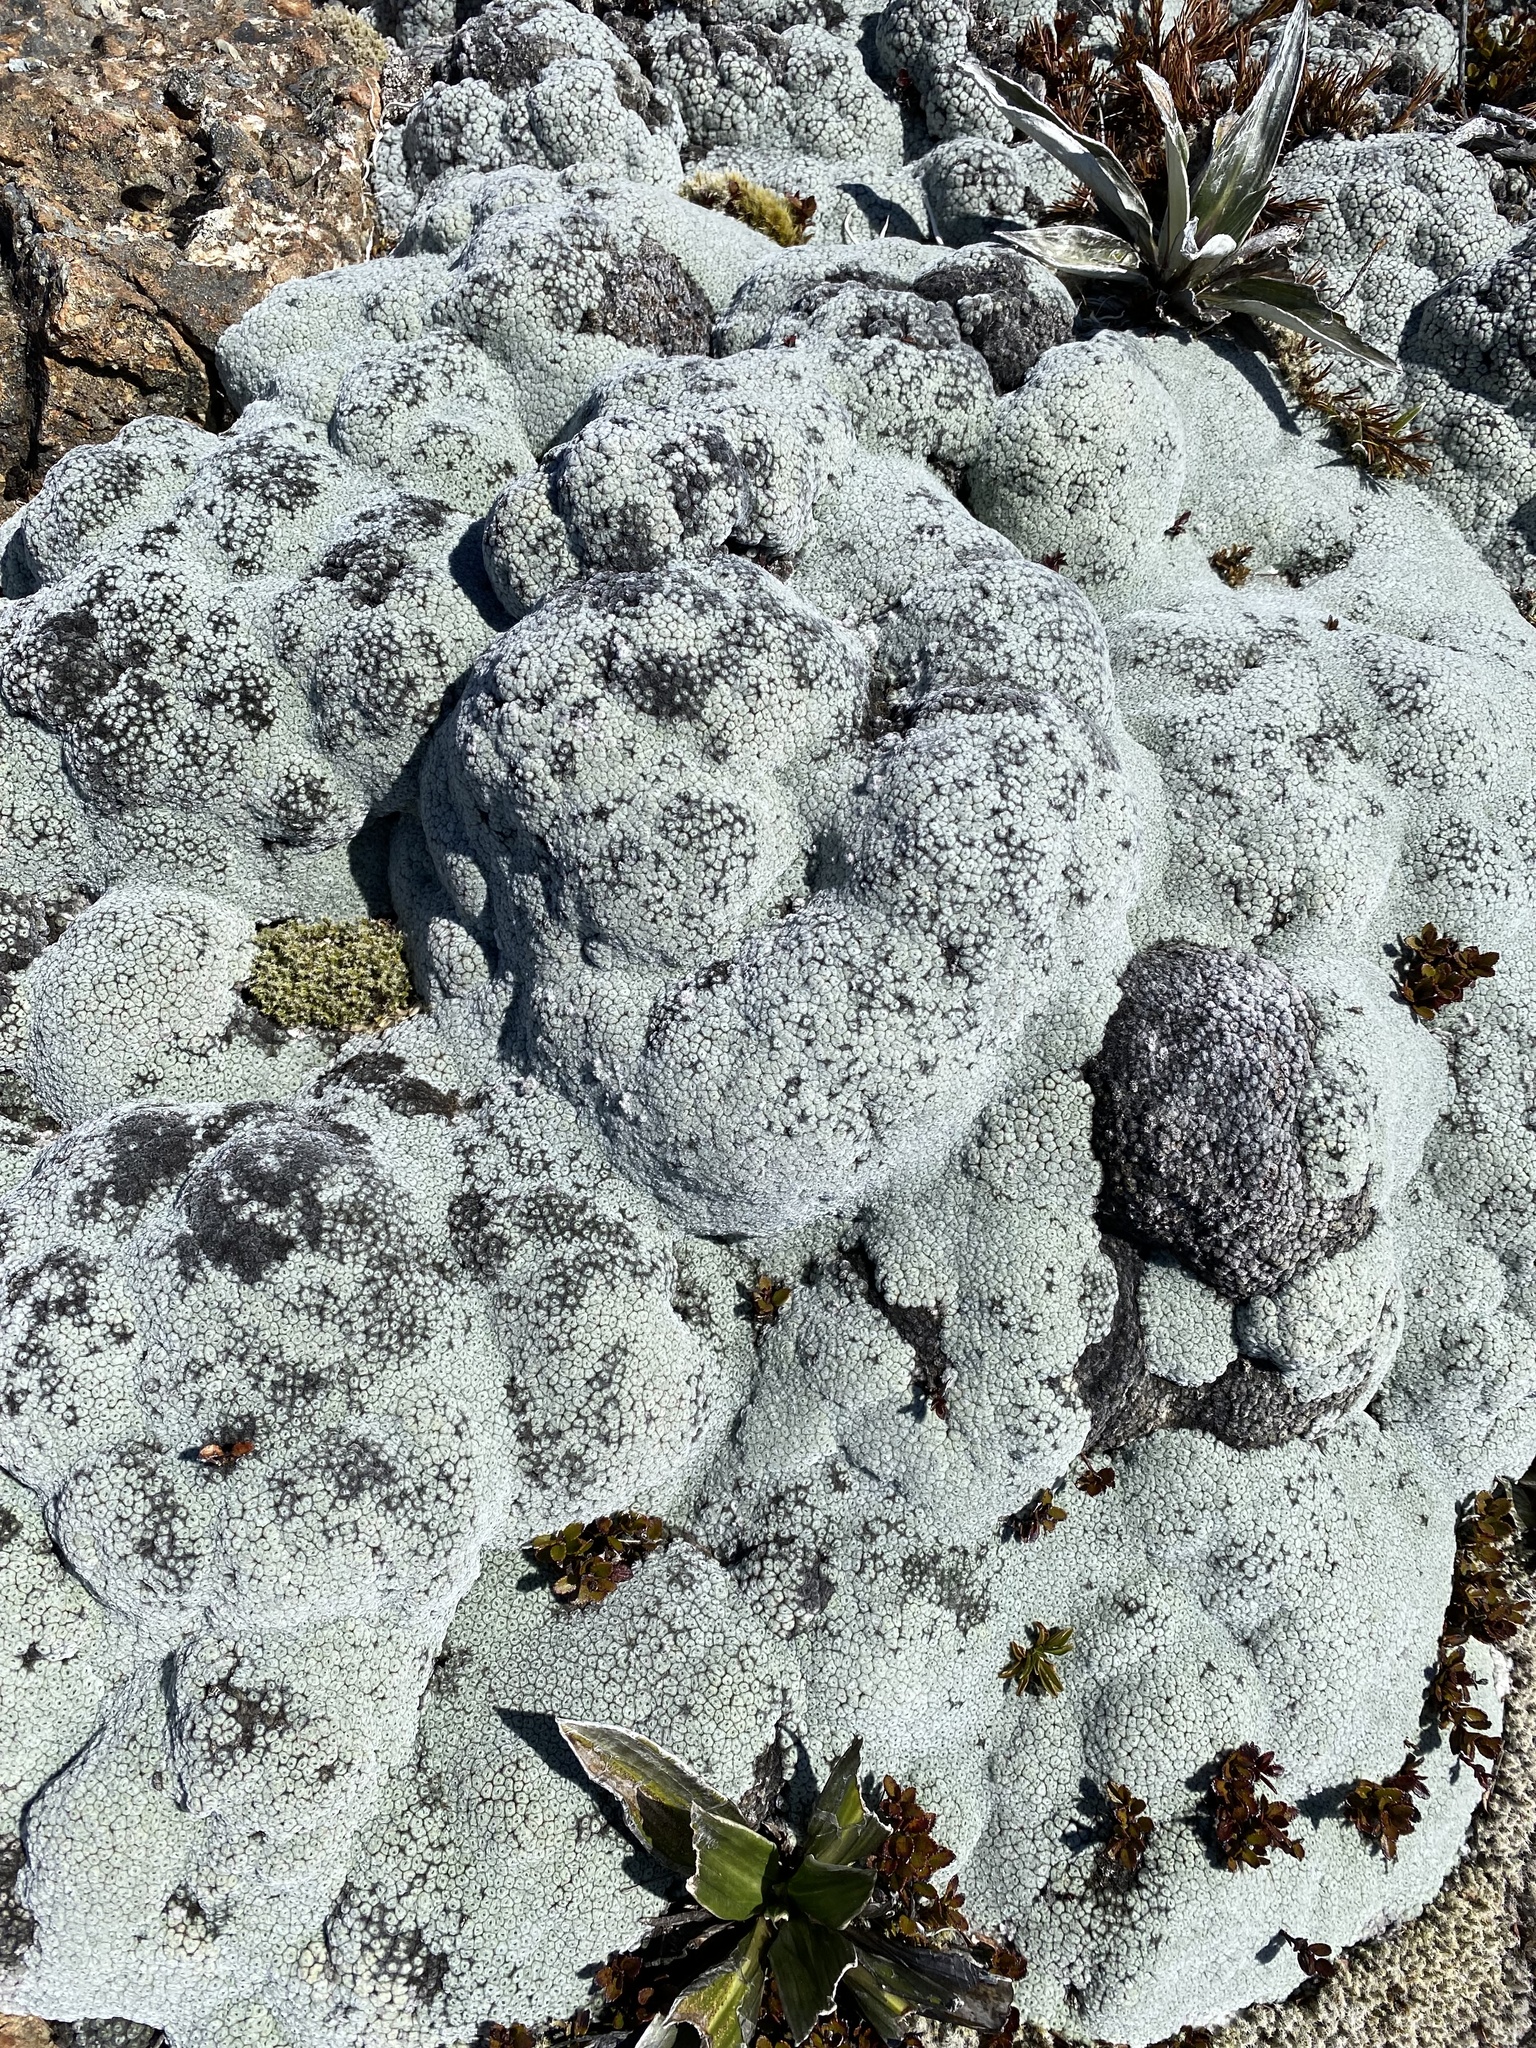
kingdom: Plantae
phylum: Tracheophyta
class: Magnoliopsida
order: Asterales
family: Asteraceae
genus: Raoulia
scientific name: Raoulia eximia
